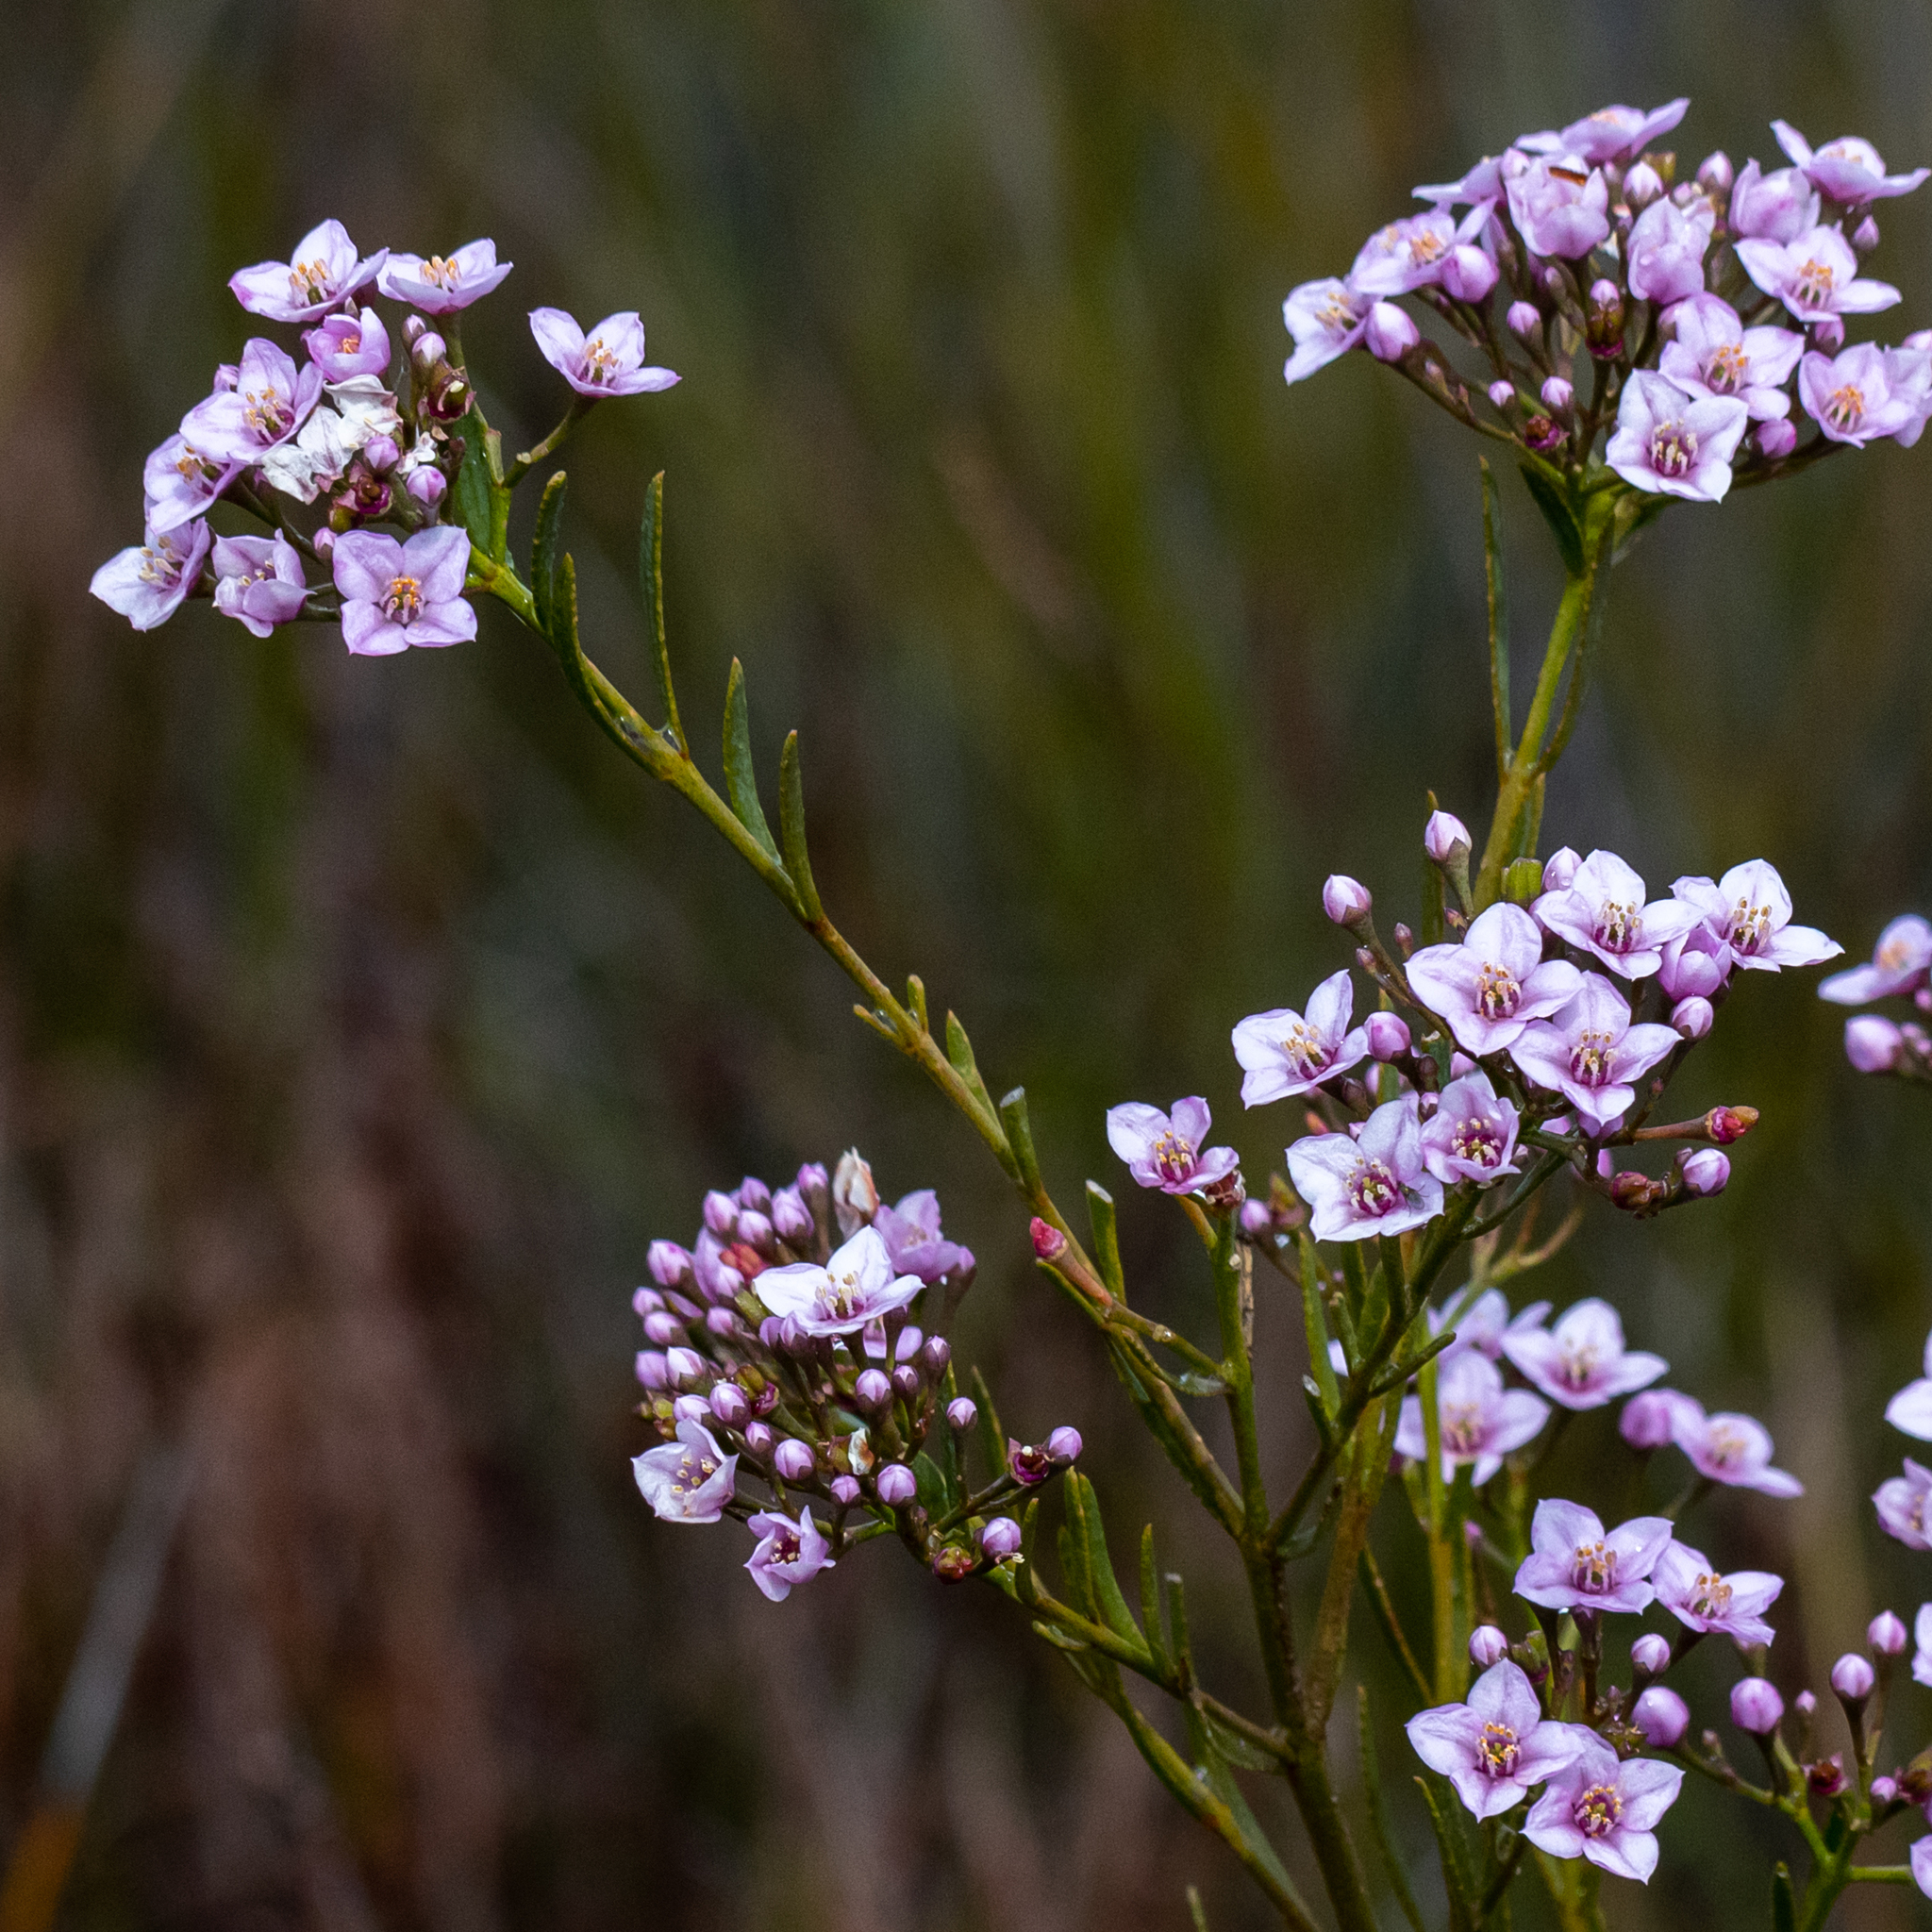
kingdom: Plantae
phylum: Tracheophyta
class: Magnoliopsida
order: Sapindales
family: Rutaceae
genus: Boronia
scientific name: Boronia denticulata
